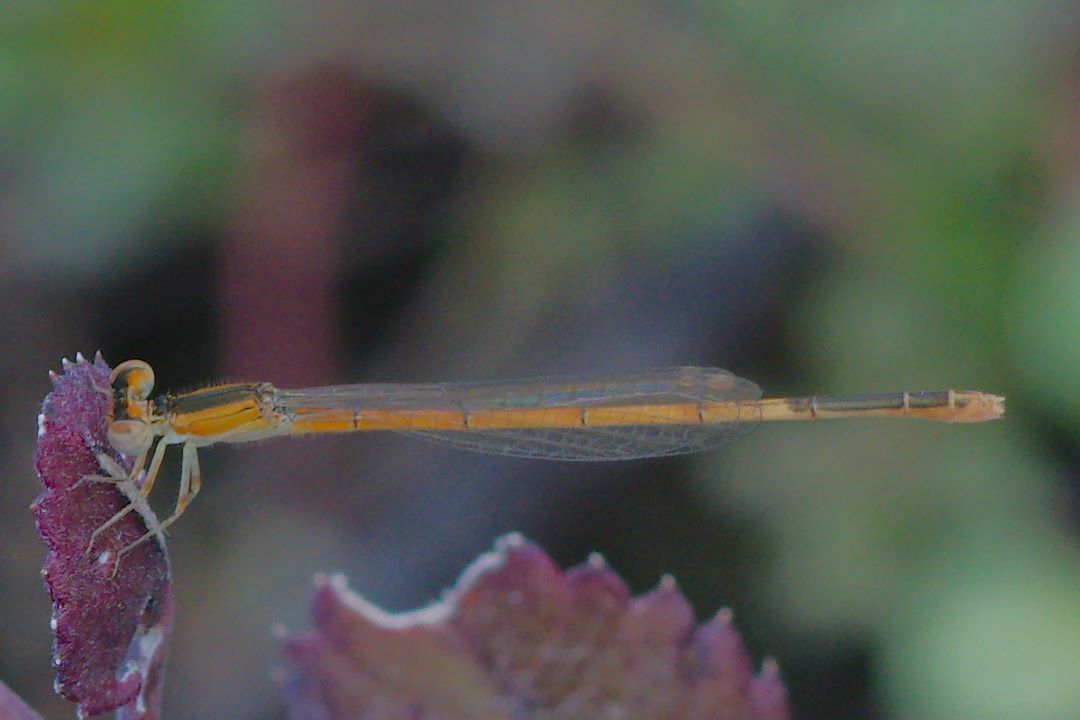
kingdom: Animalia
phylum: Arthropoda
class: Insecta
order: Odonata
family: Coenagrionidae
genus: Ischnura
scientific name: Ischnura hastata
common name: Citrine forktail
